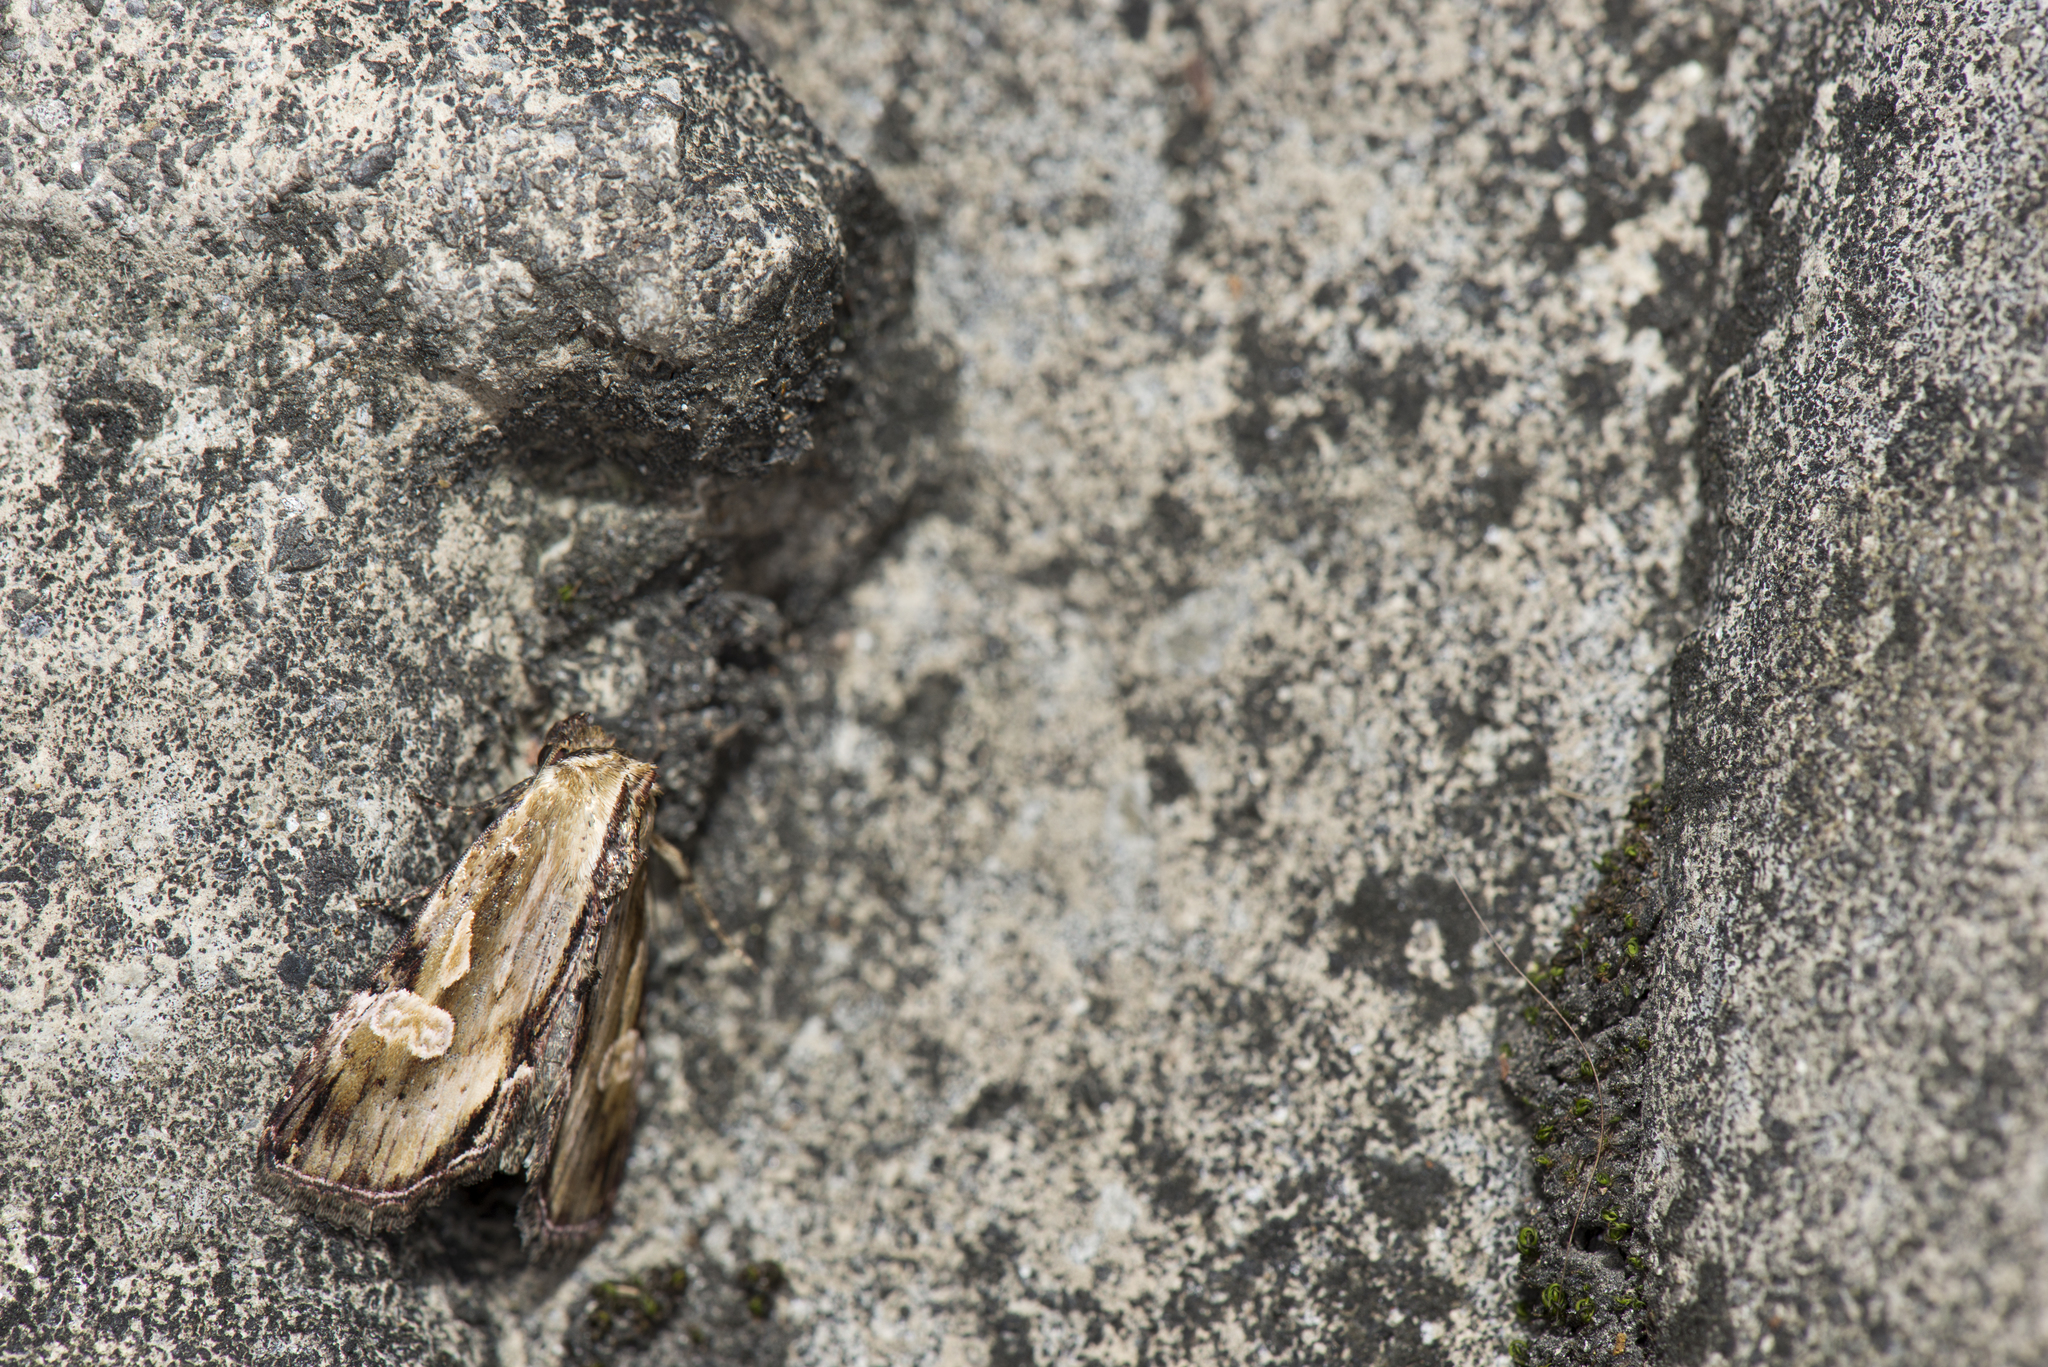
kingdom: Animalia
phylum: Arthropoda
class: Insecta
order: Lepidoptera
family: Noctuidae
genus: Antha
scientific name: Antha grata
